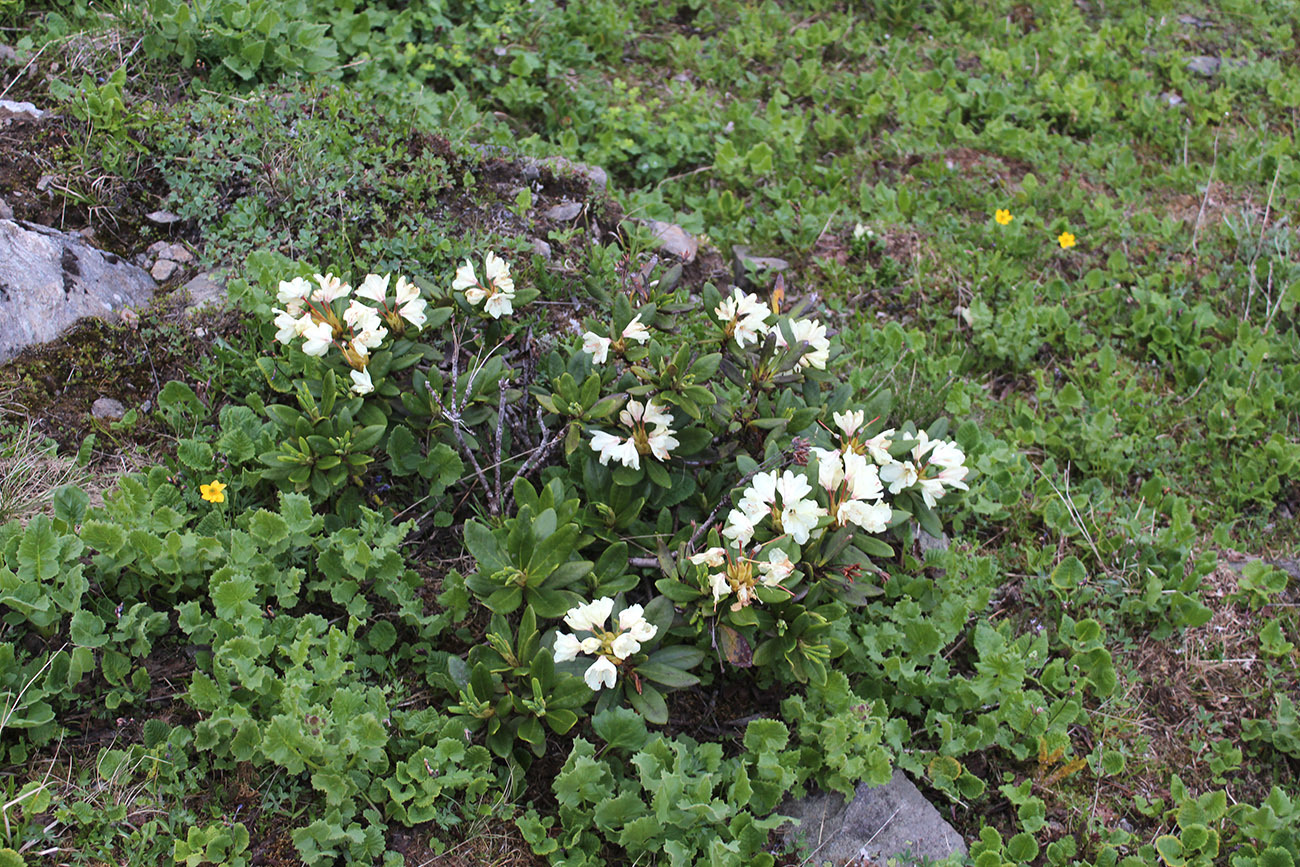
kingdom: Plantae
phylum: Tracheophyta
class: Magnoliopsida
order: Ericales
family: Ericaceae
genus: Rhododendron
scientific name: Rhododendron caucasicum
